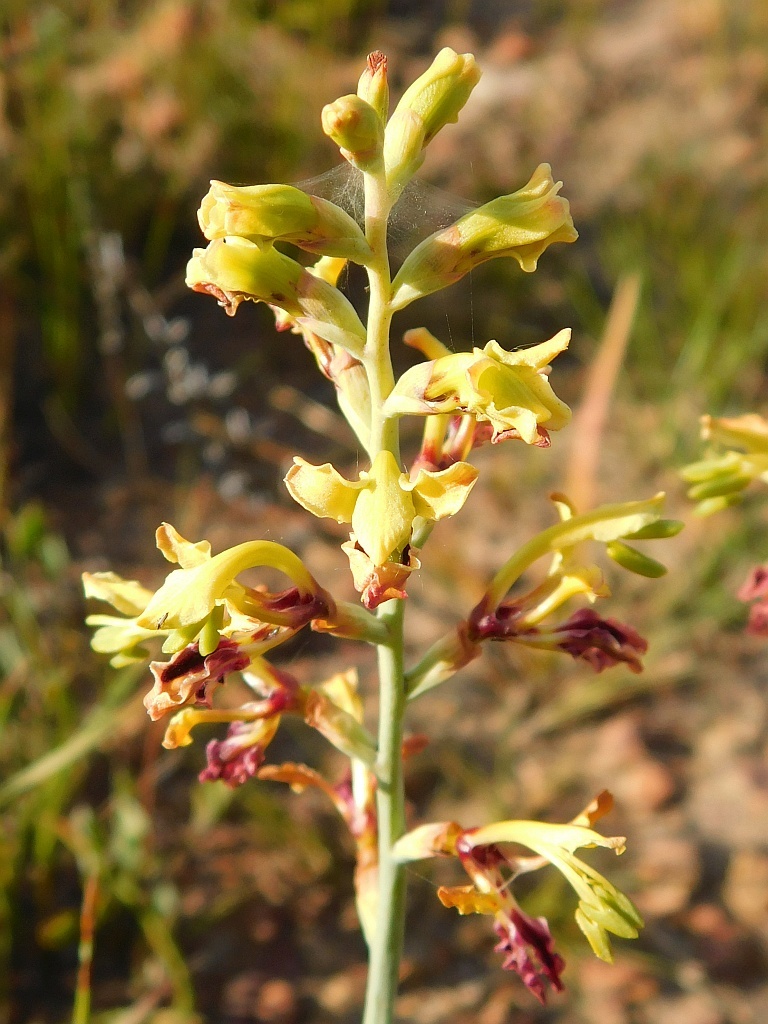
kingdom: Plantae
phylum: Tracheophyta
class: Liliopsida
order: Asparagales
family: Iridaceae
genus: Tritoniopsis
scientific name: Tritoniopsis parviflora
